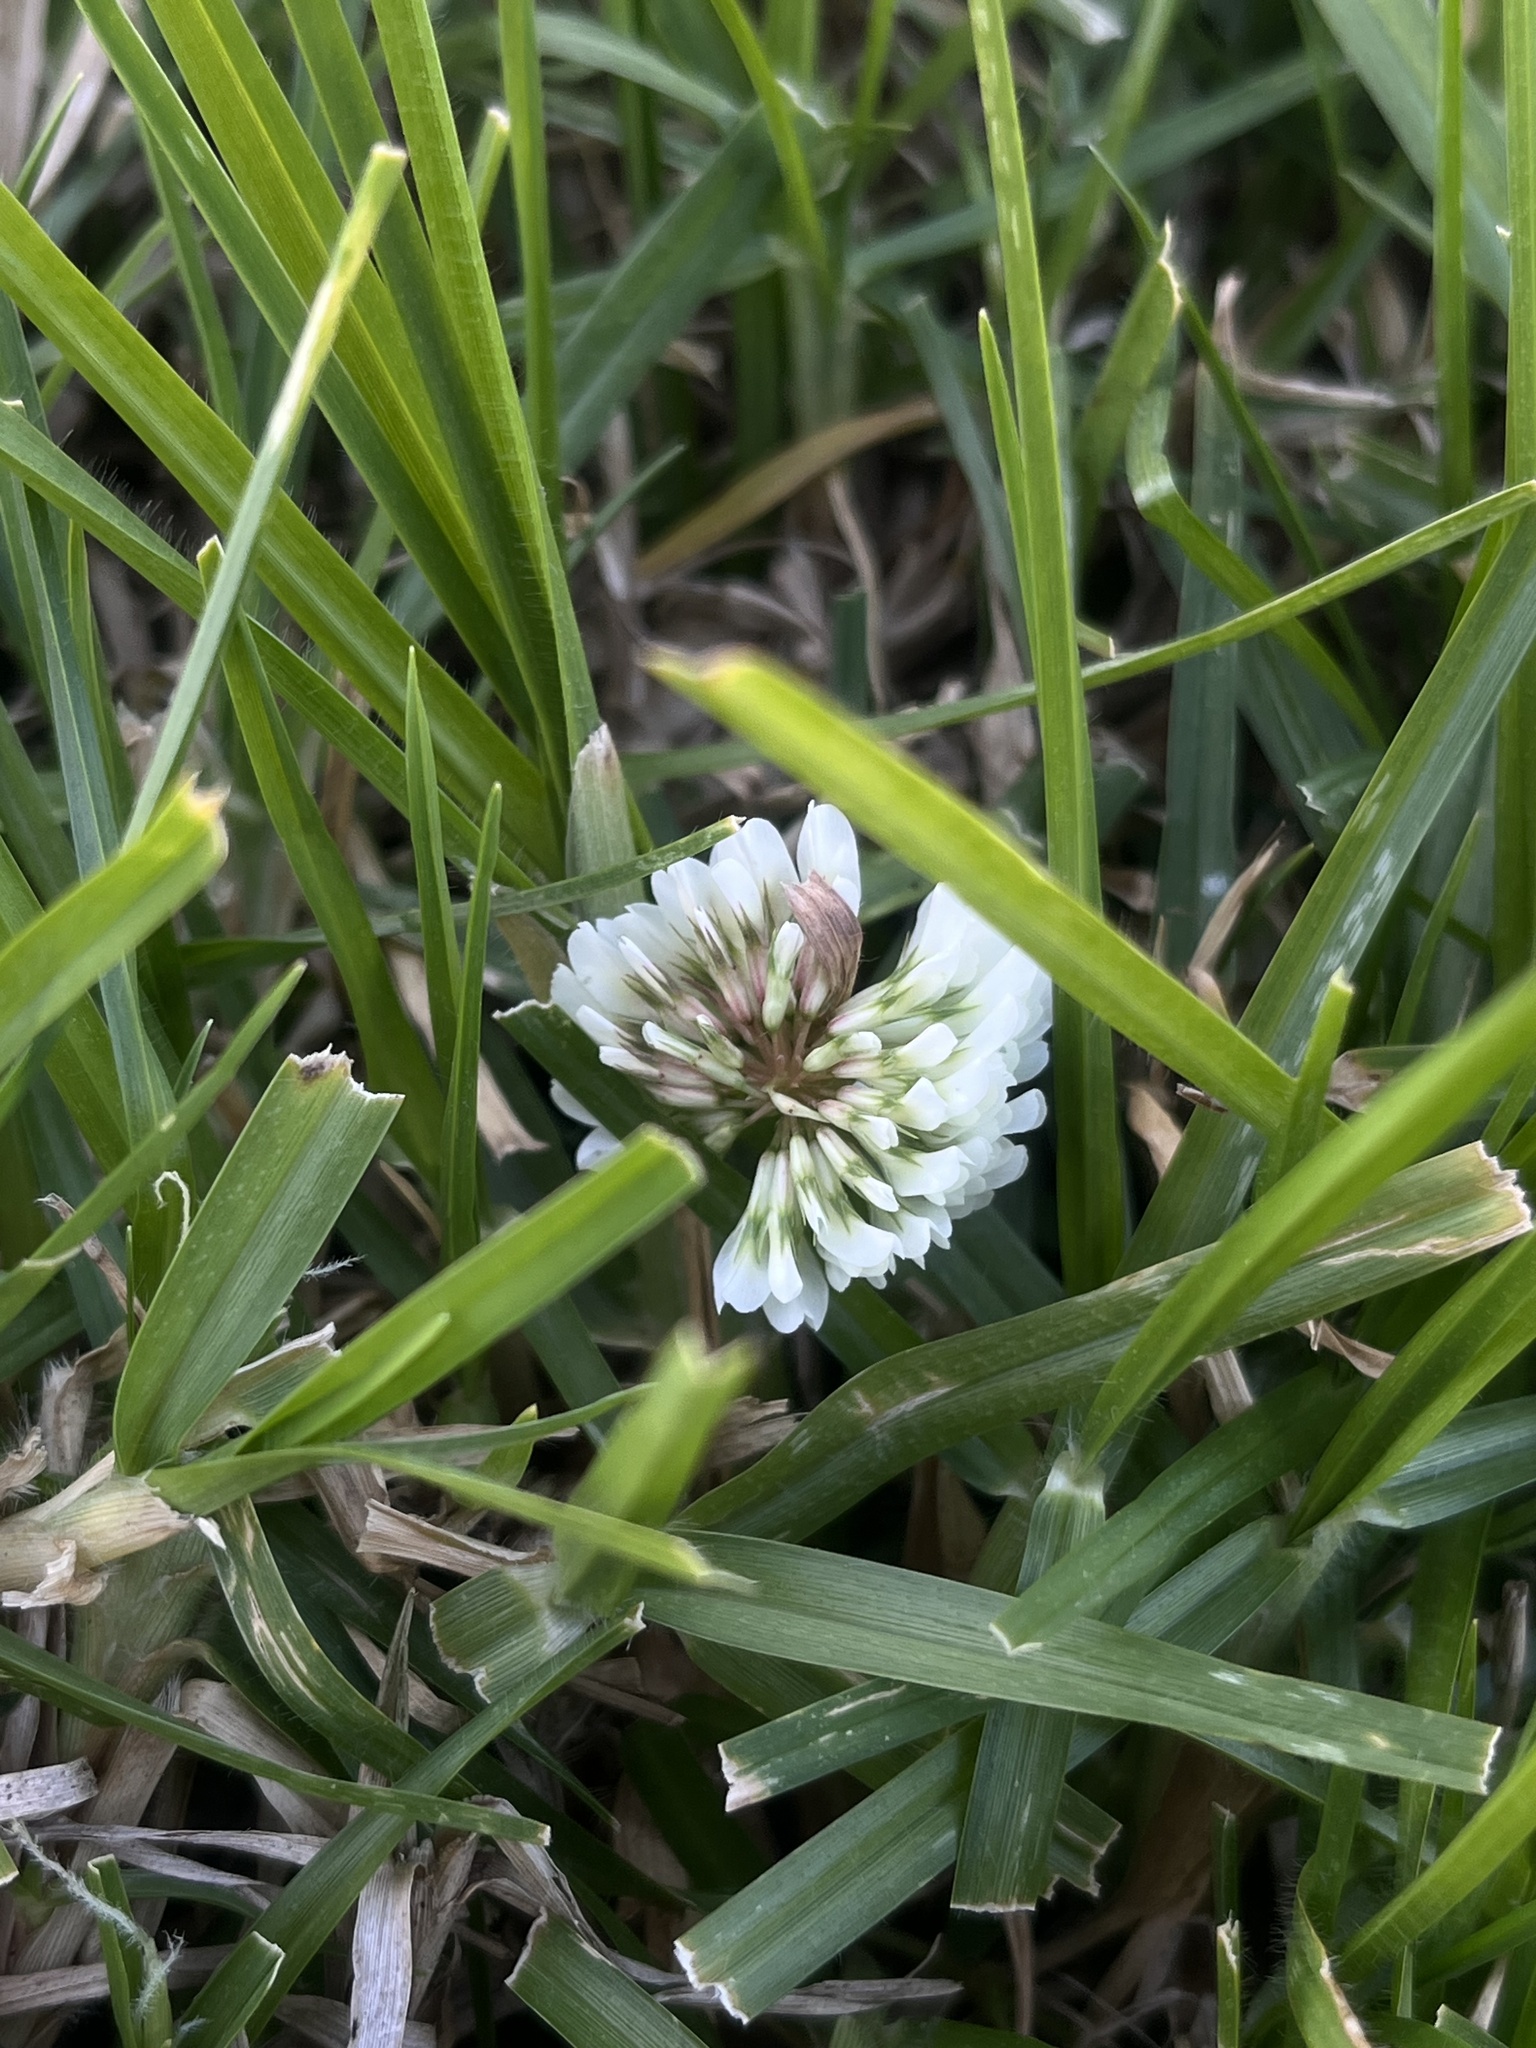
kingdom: Plantae
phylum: Tracheophyta
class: Magnoliopsida
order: Fabales
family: Fabaceae
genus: Trifolium
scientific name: Trifolium repens
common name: White clover
